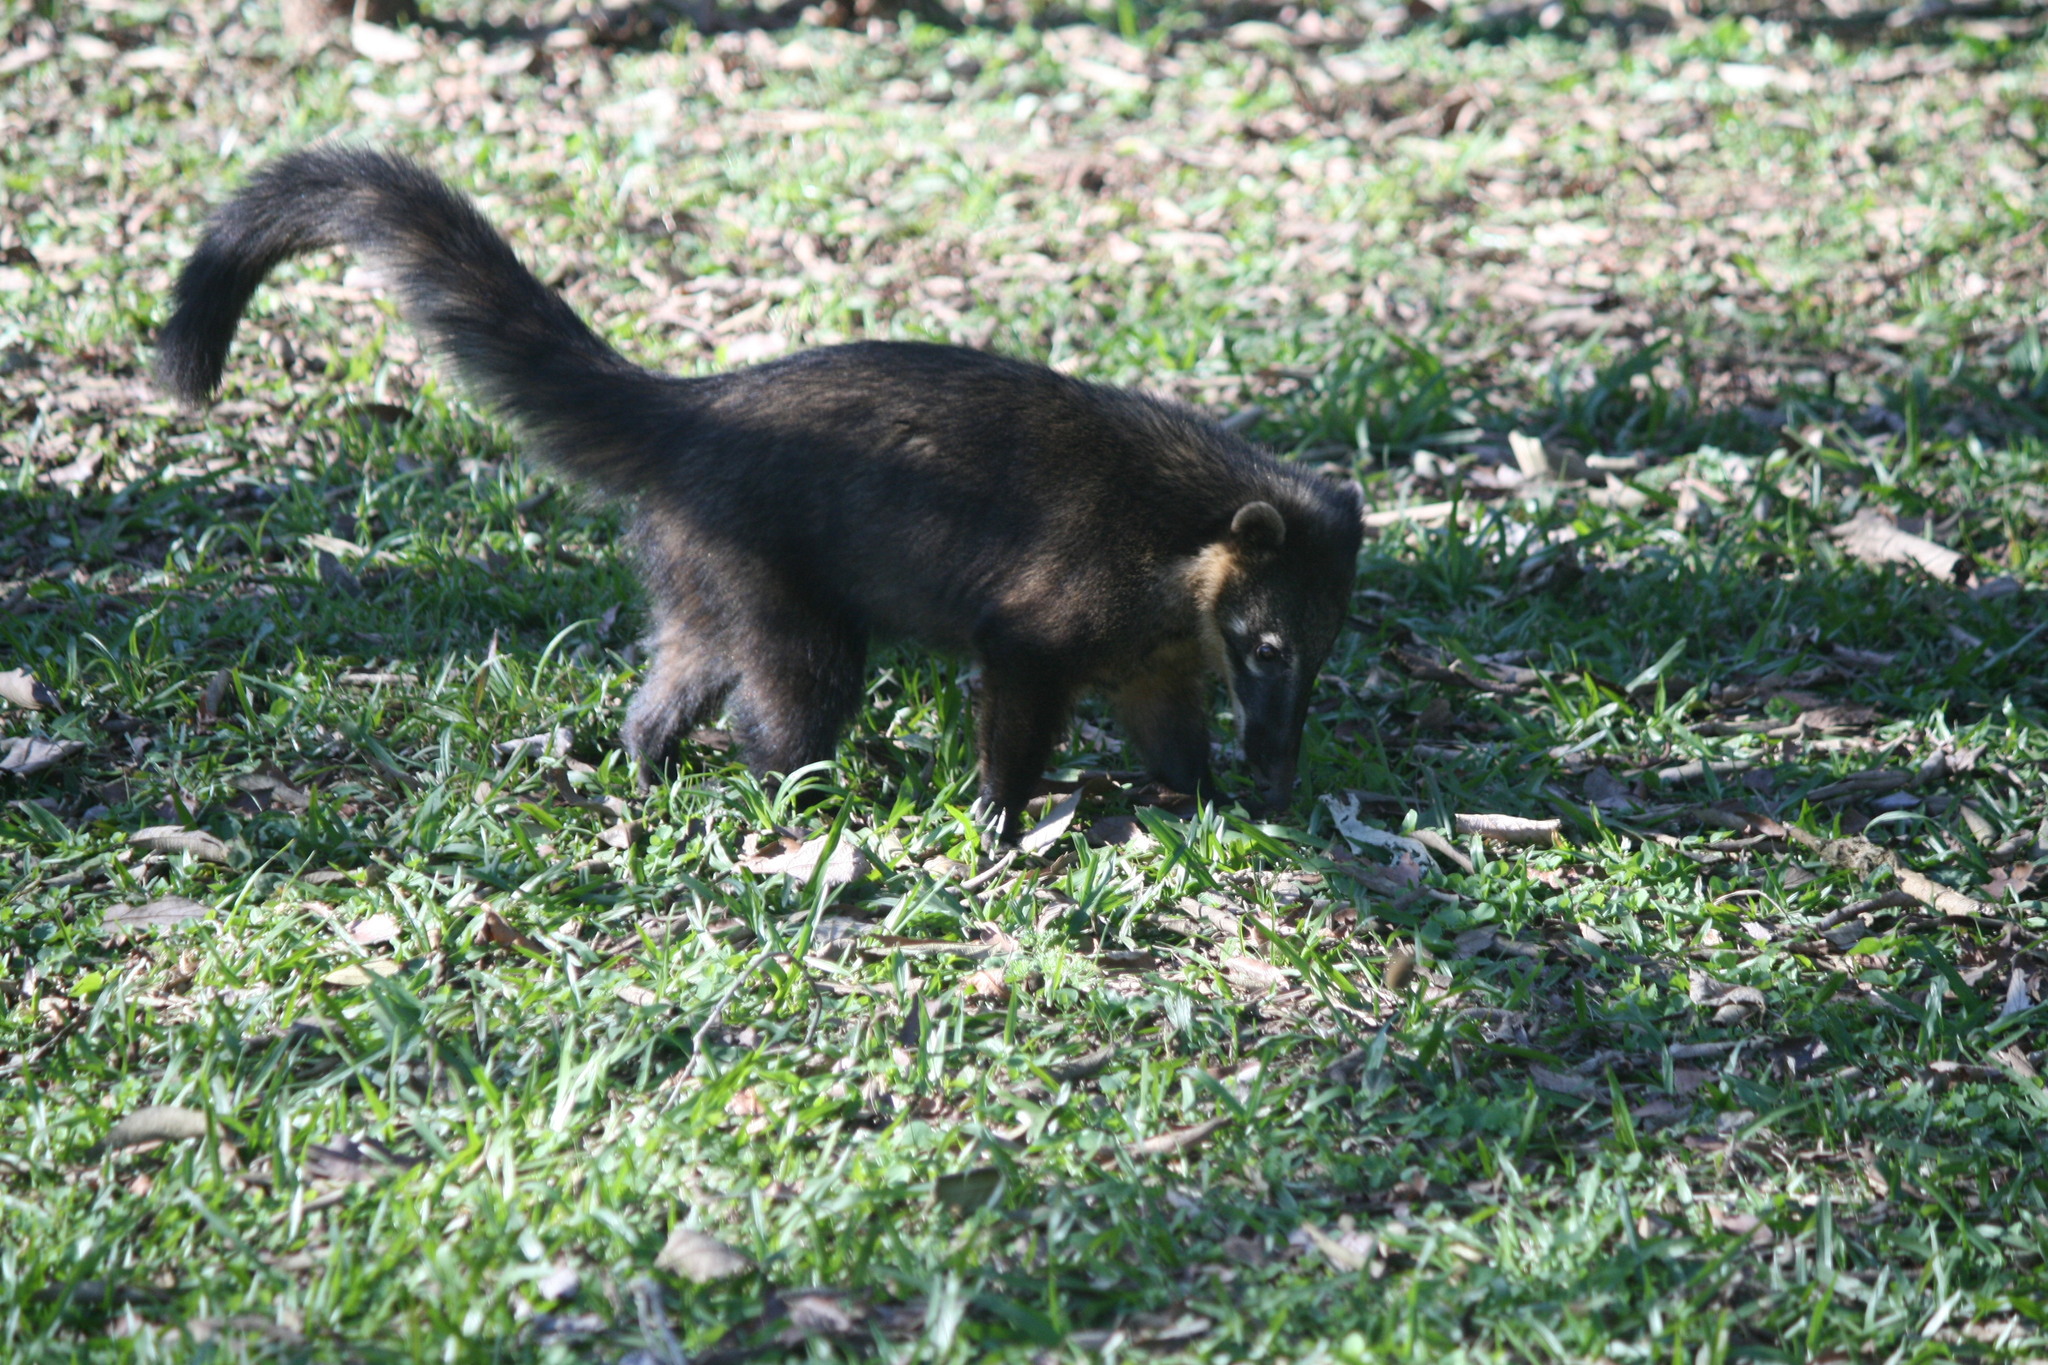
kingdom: Animalia
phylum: Chordata
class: Mammalia
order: Carnivora
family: Procyonidae
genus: Nasua
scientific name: Nasua nasua
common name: South american coati
